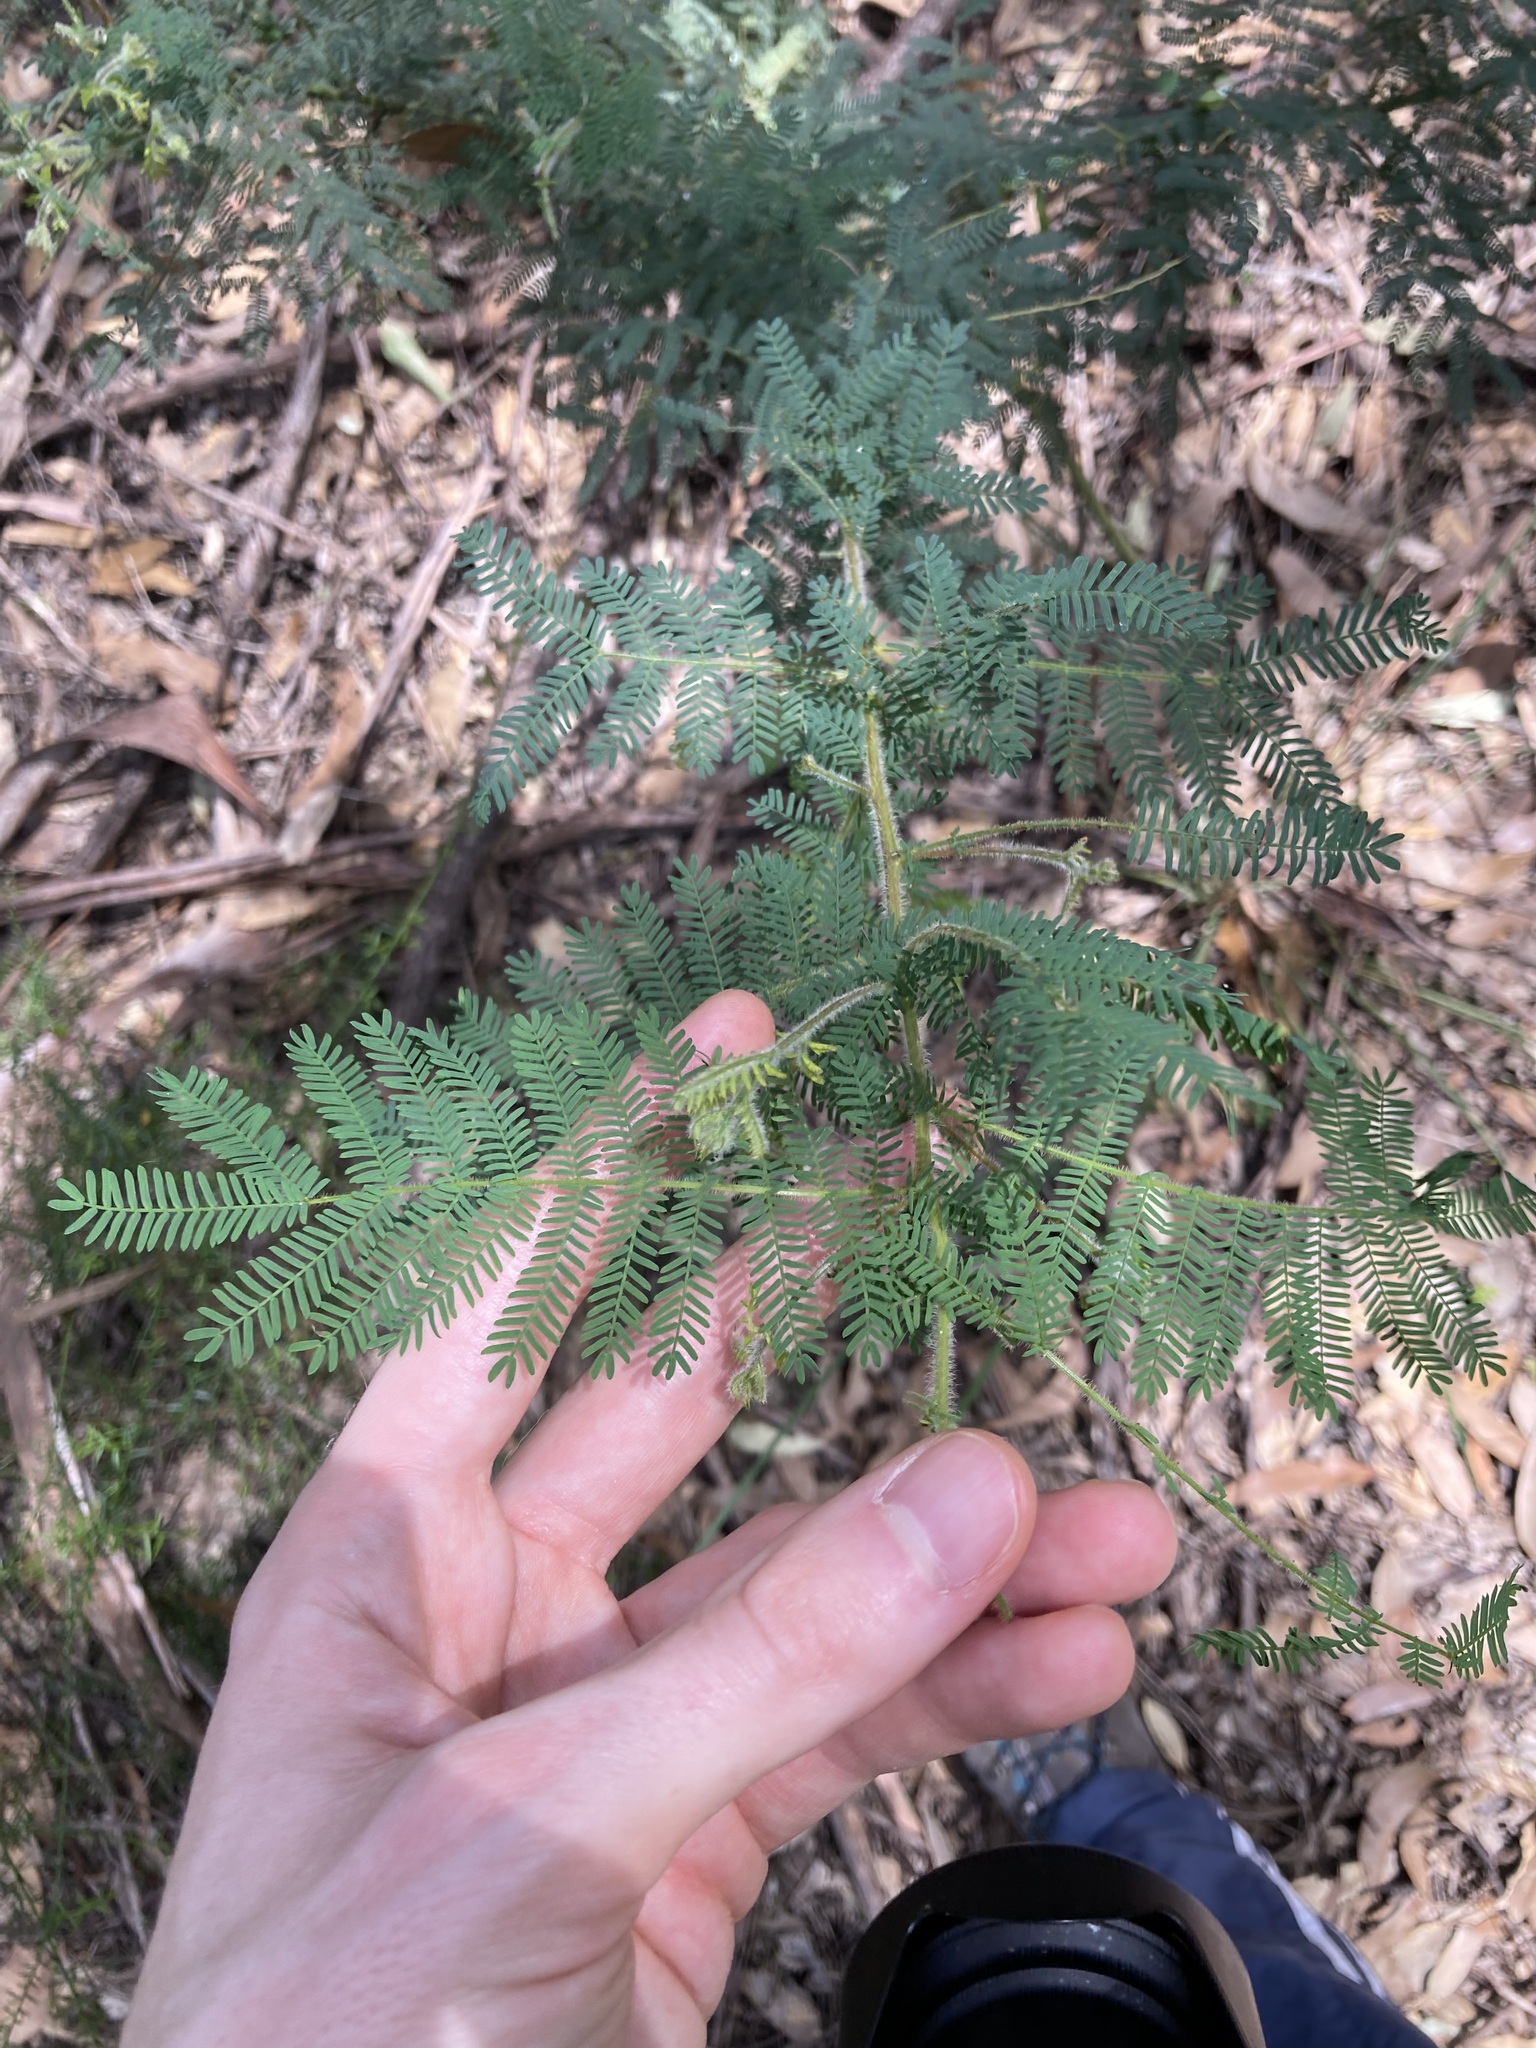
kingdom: Plantae
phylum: Tracheophyta
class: Magnoliopsida
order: Fabales
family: Fabaceae
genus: Acacia
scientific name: Acacia pubescens
